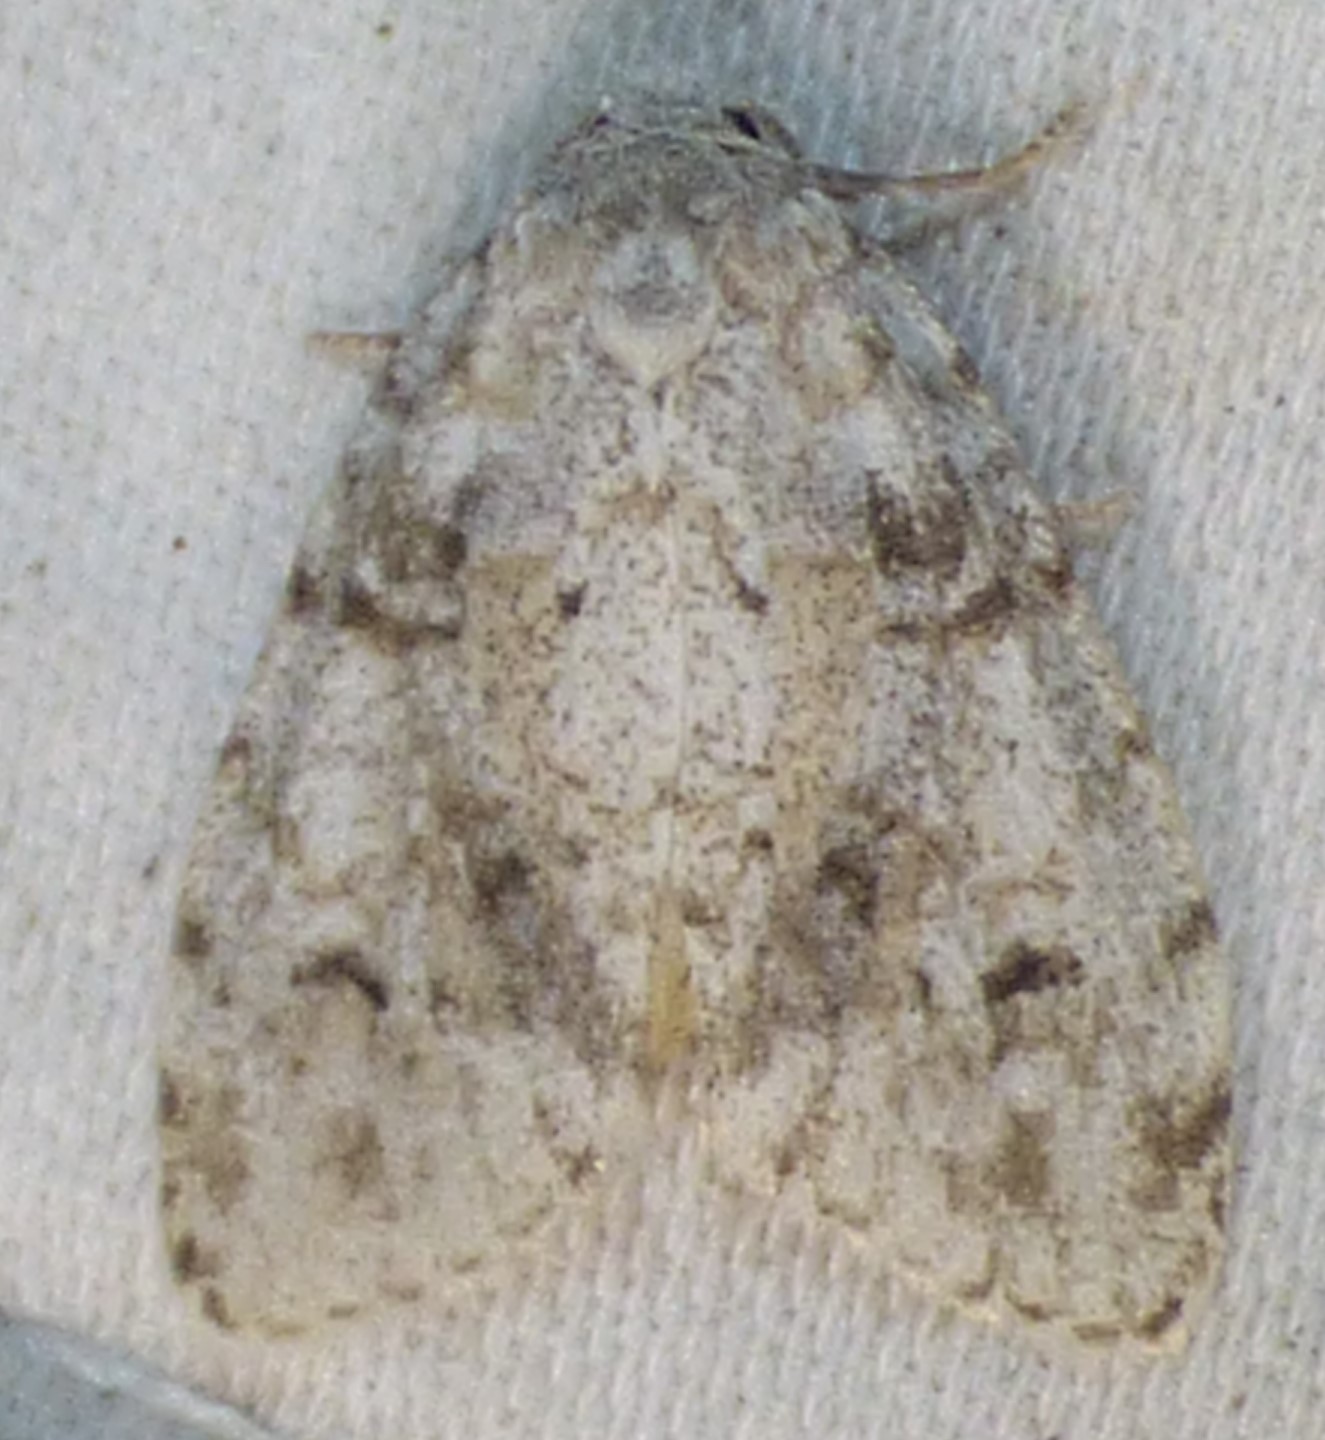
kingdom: Animalia
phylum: Arthropoda
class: Insecta
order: Lepidoptera
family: Erebidae
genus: Clemensia
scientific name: Clemensia albata
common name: Little white lichen moth
